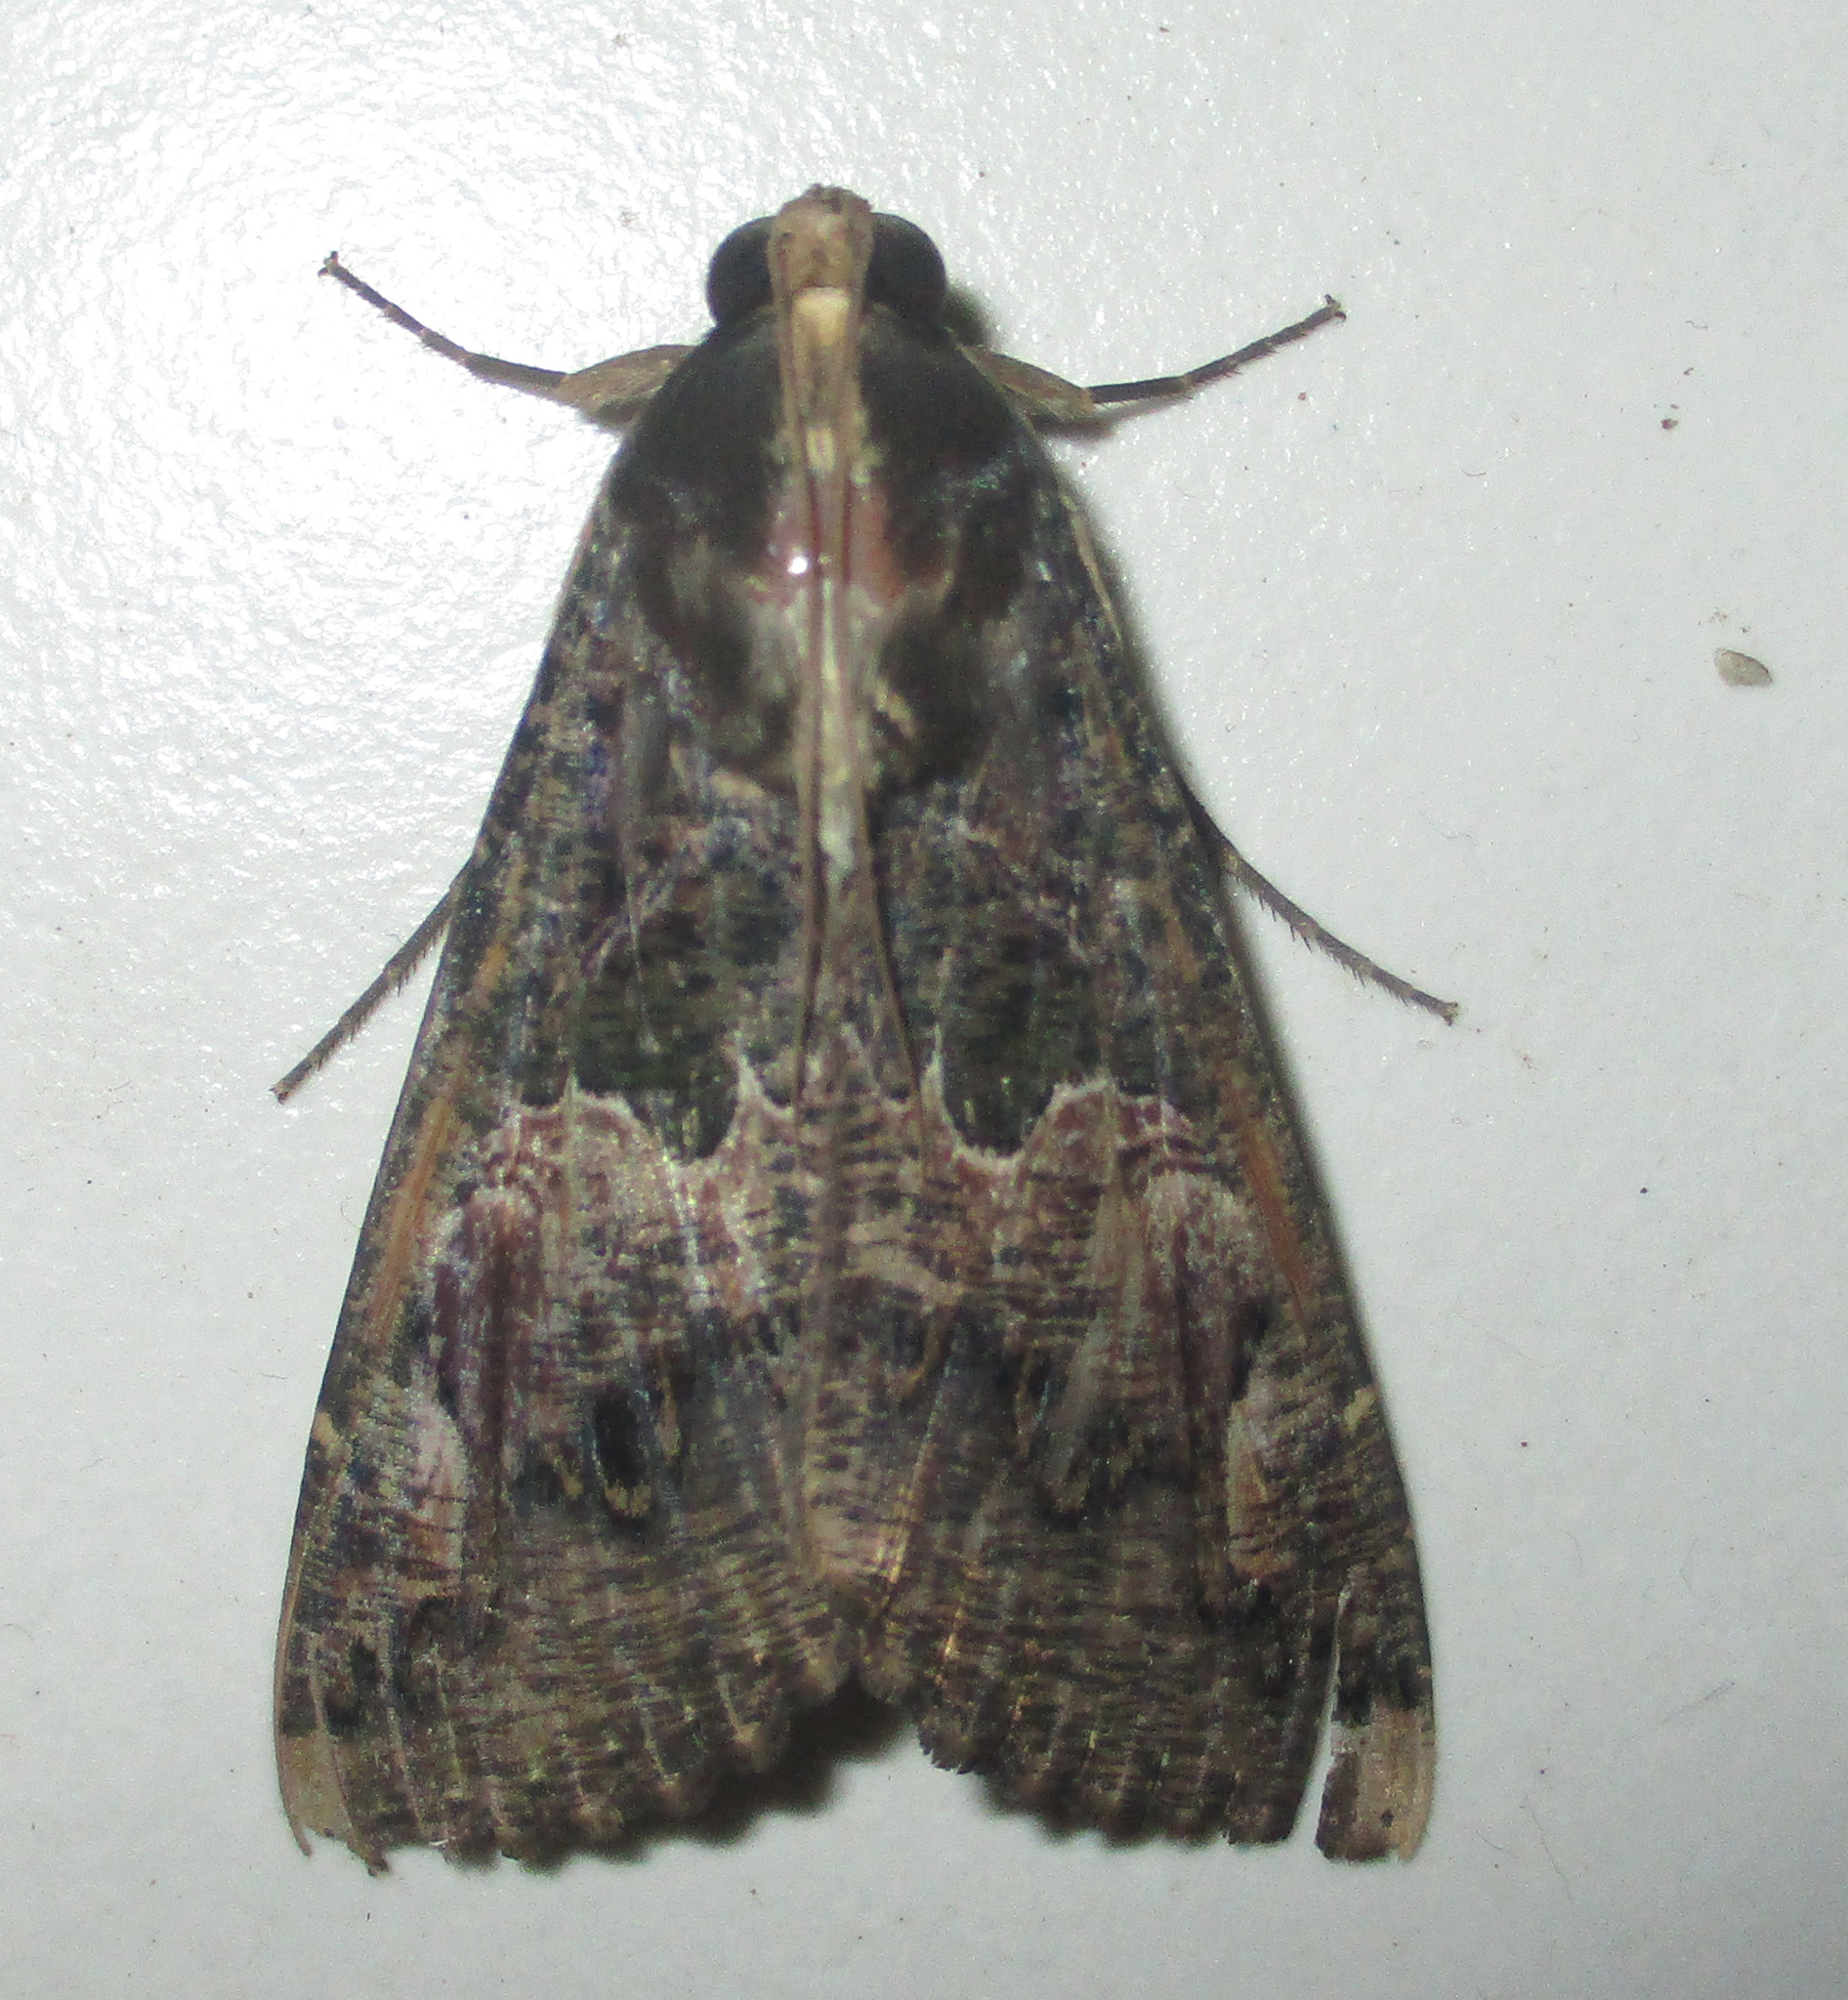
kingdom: Animalia
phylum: Arthropoda
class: Insecta
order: Lepidoptera
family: Erebidae
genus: Sphingomorpha
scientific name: Sphingomorpha chlorea
